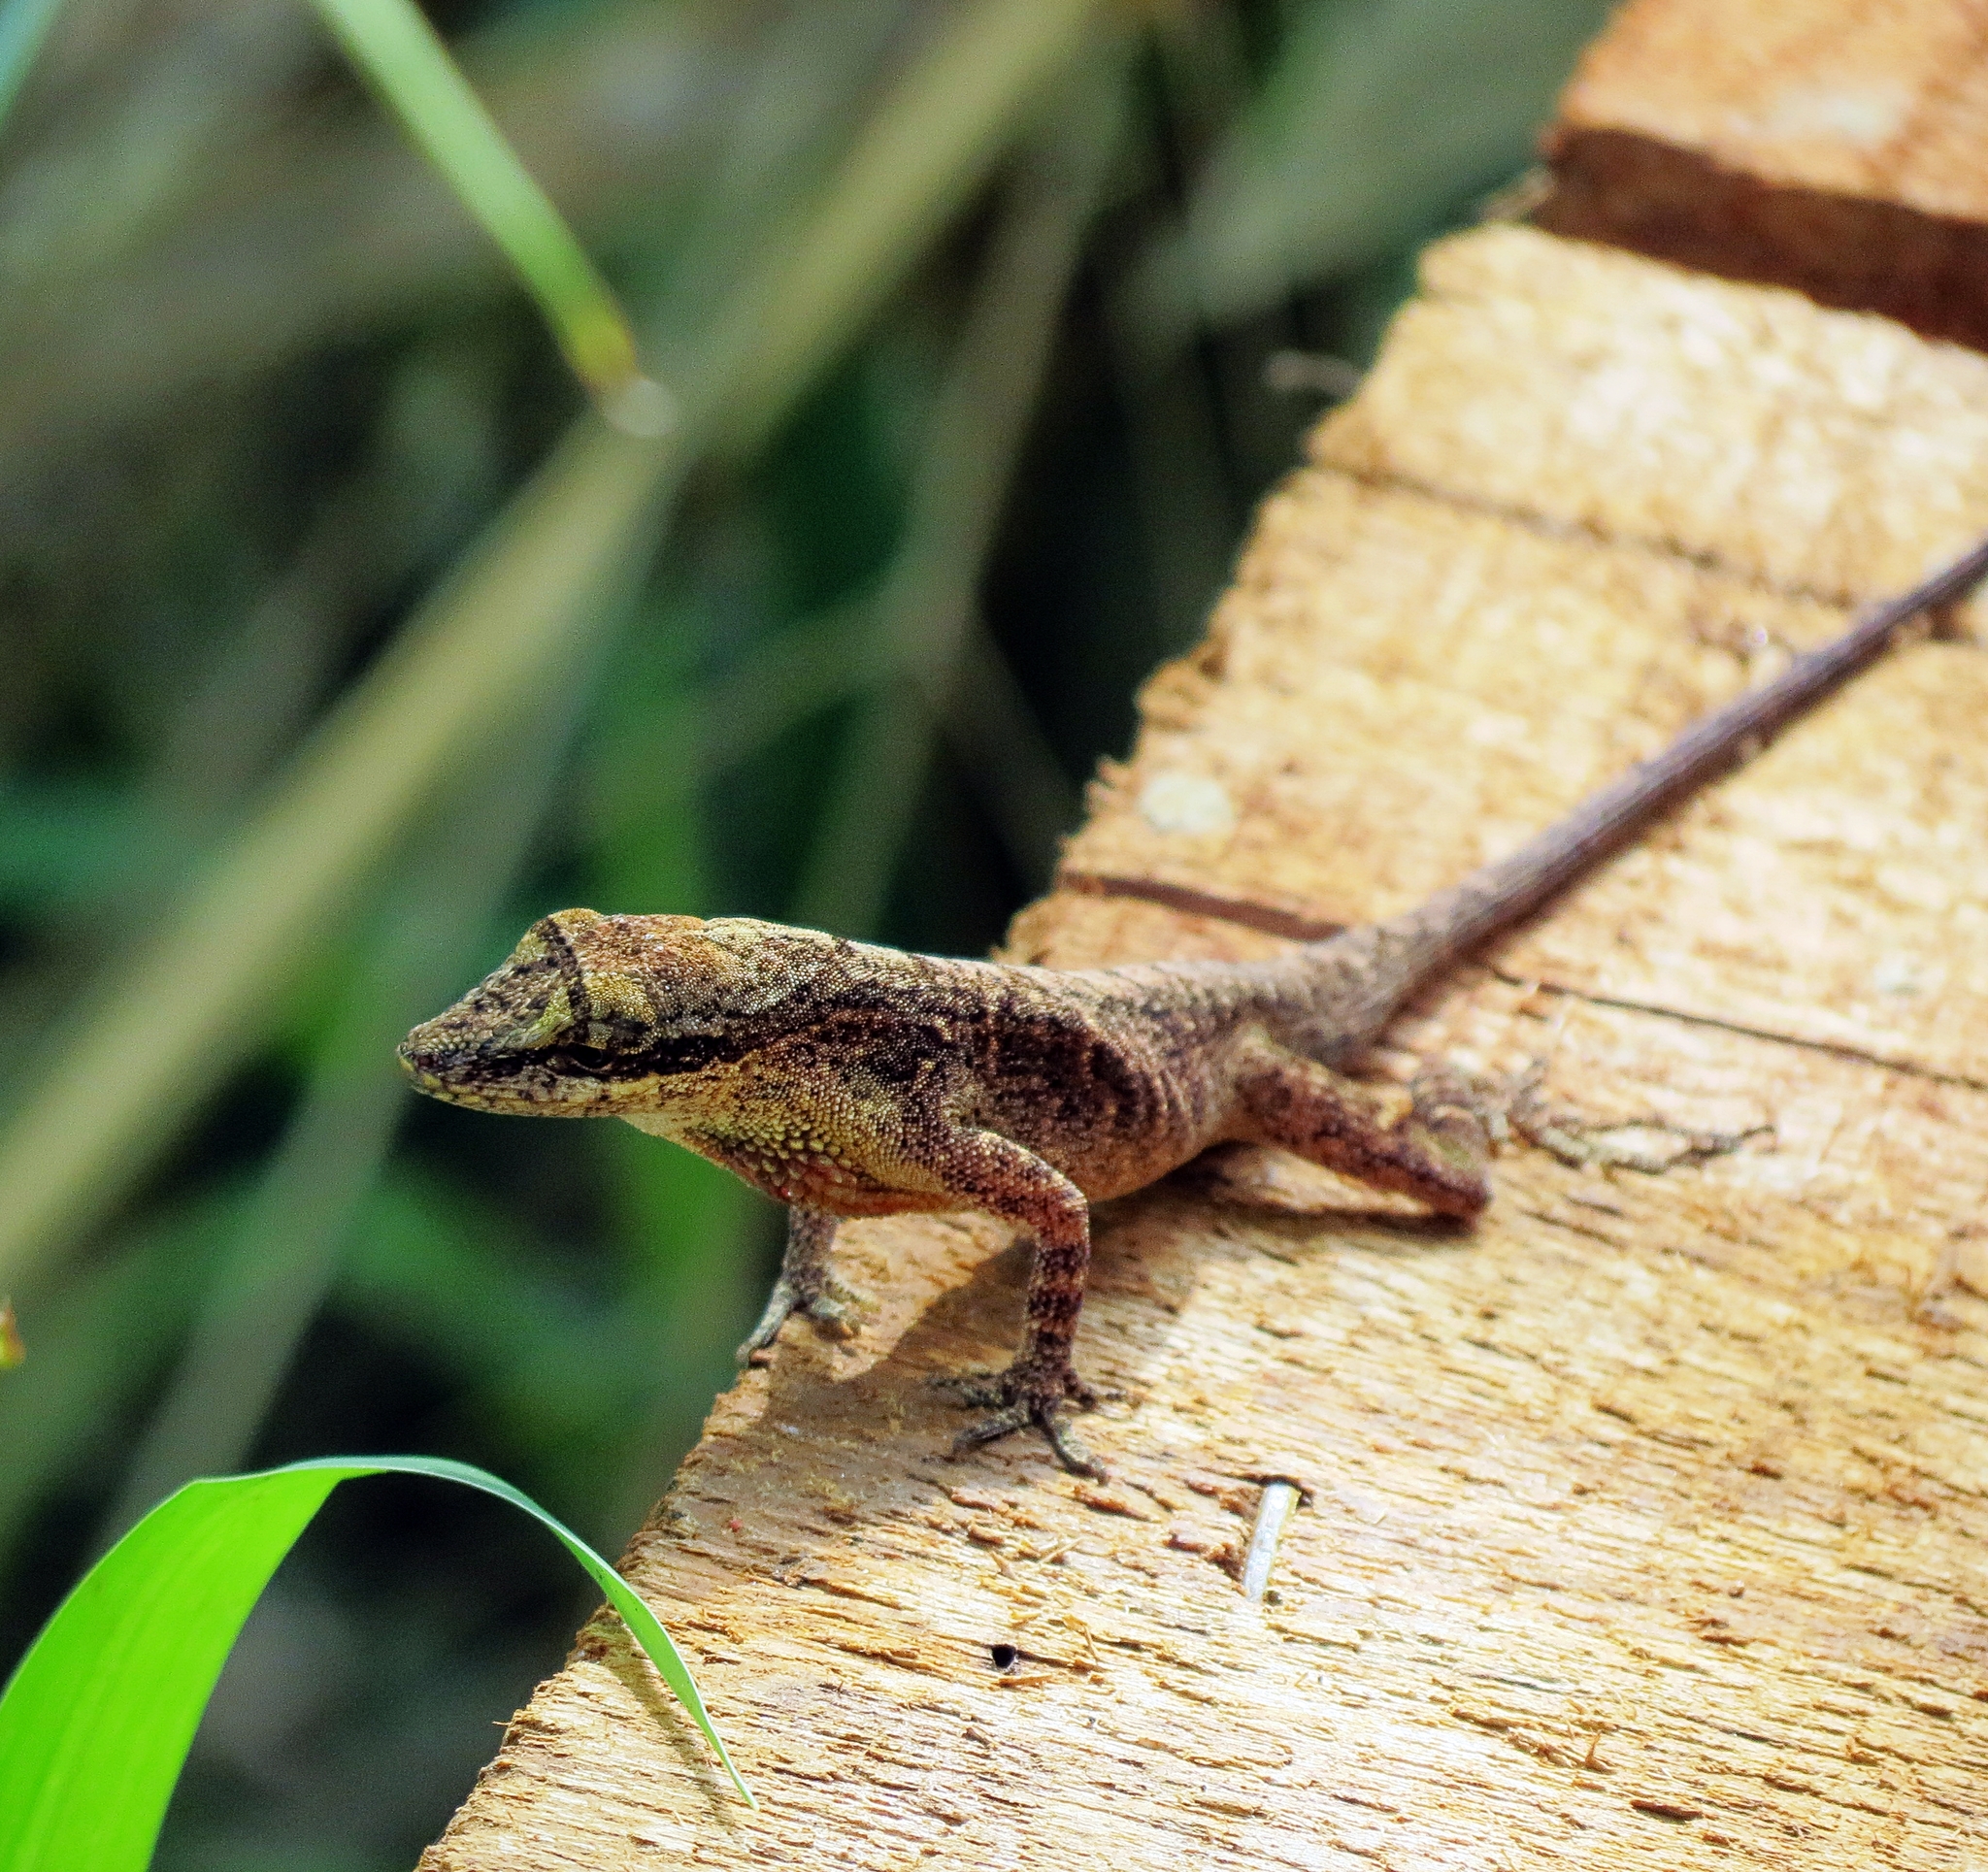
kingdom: Animalia
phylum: Chordata
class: Squamata
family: Dactyloidae
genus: Anolis
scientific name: Anolis mariarum
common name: Blemished anole
